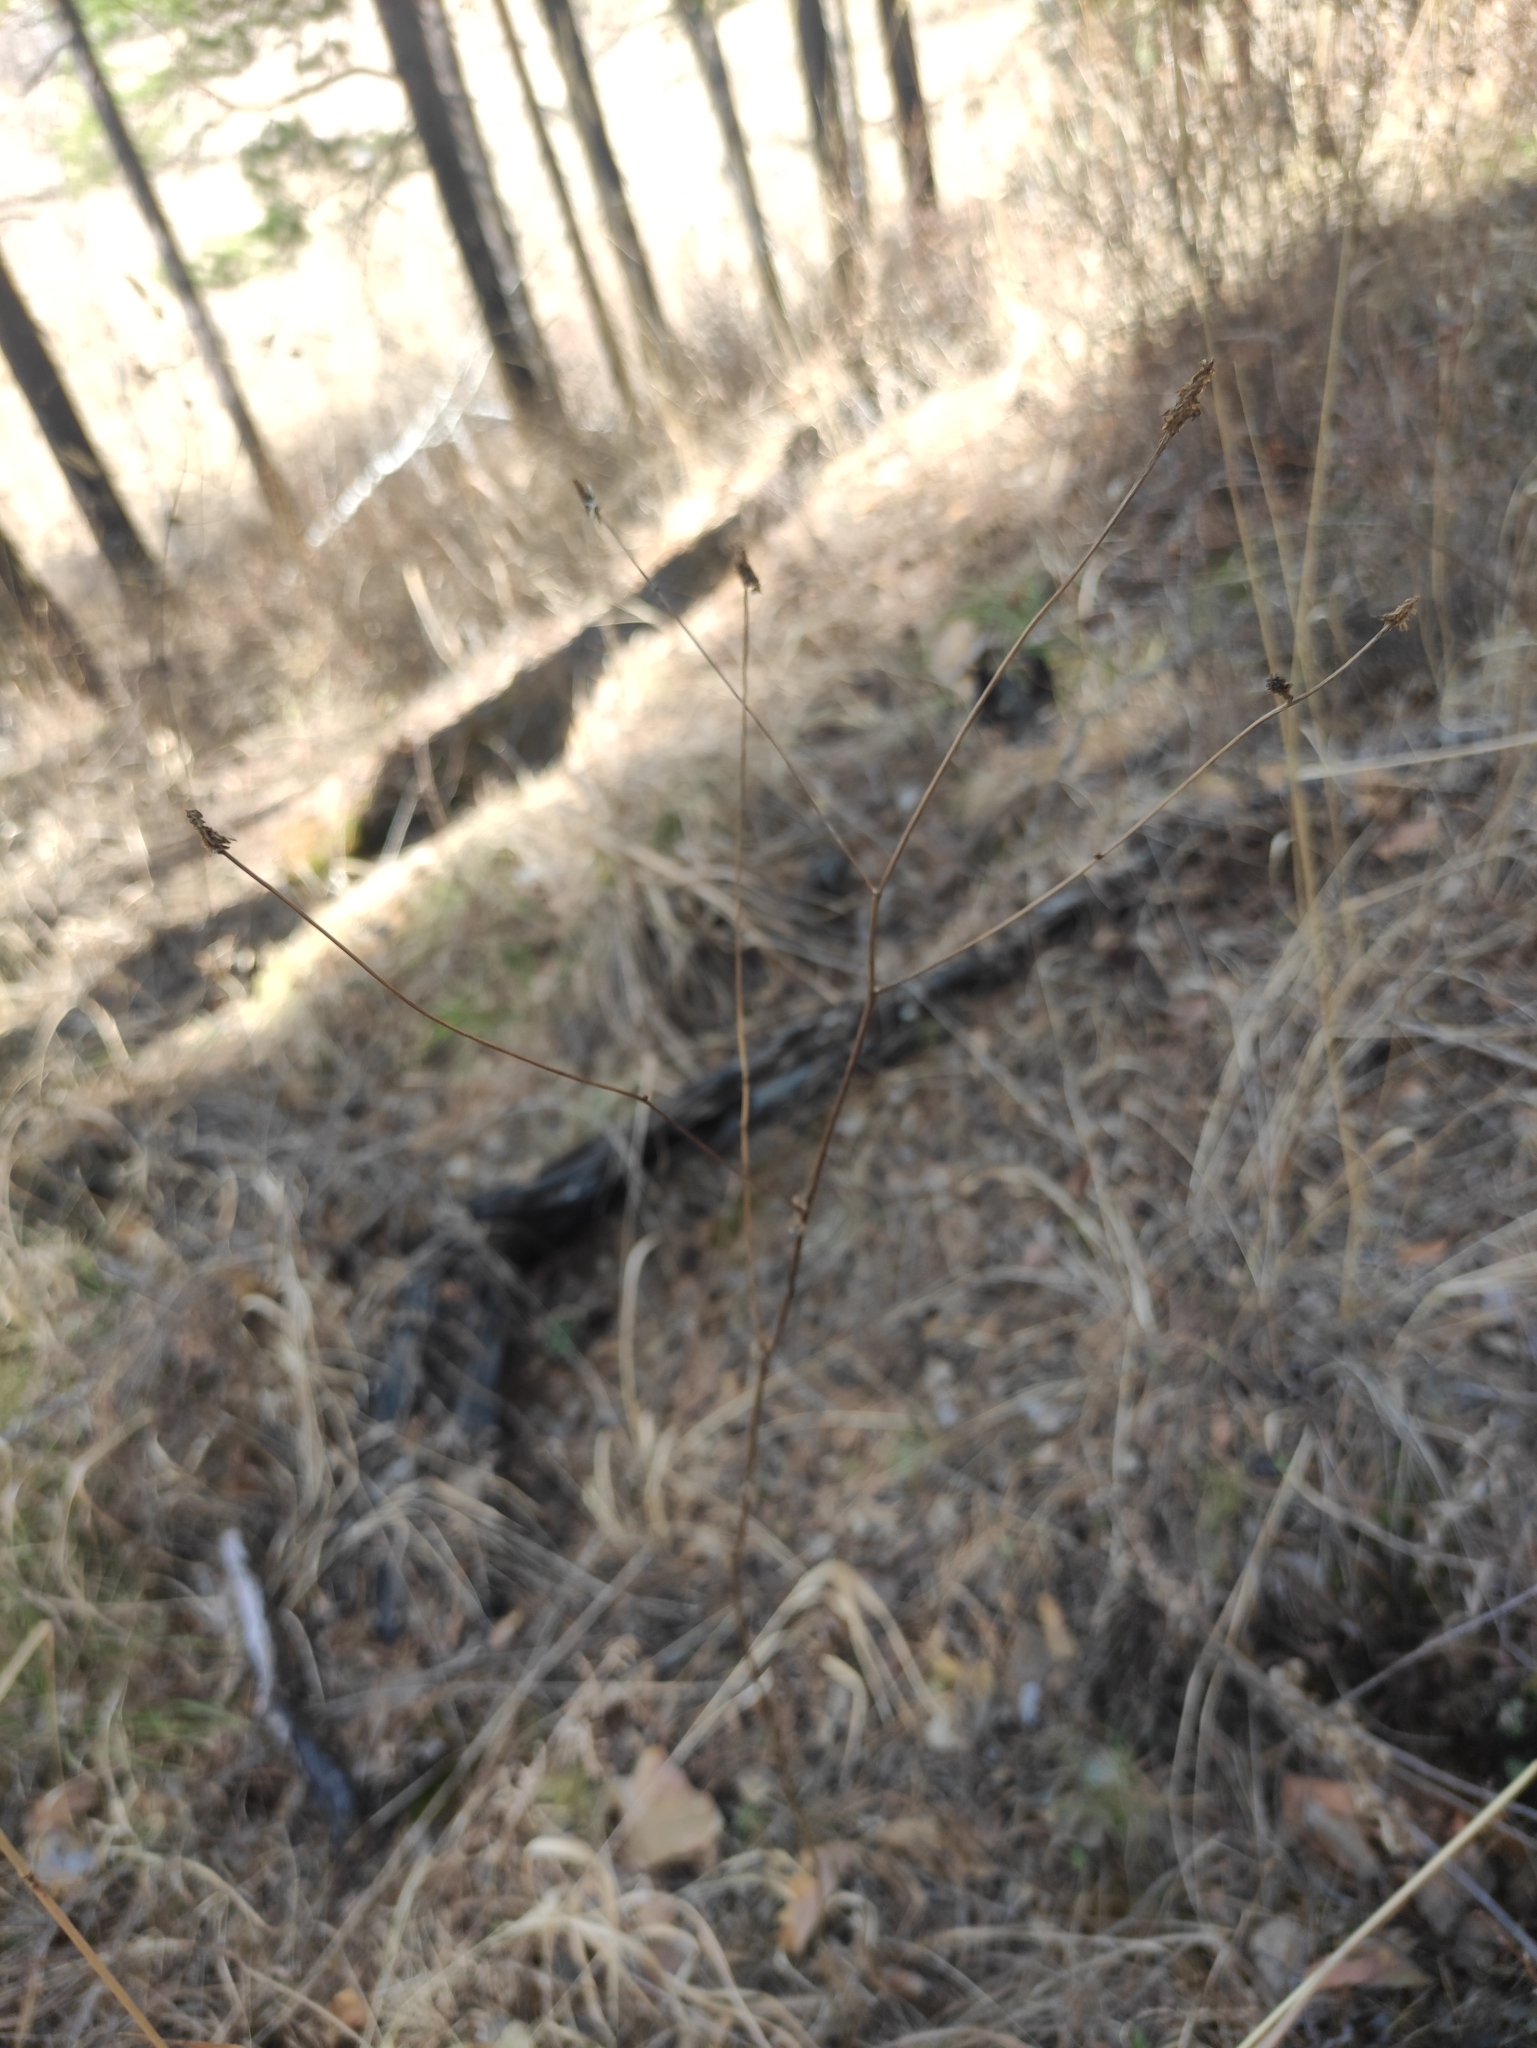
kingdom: Plantae
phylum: Tracheophyta
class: Magnoliopsida
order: Rosales
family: Rosaceae
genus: Sanguisorba
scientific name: Sanguisorba officinalis
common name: Great burnet
